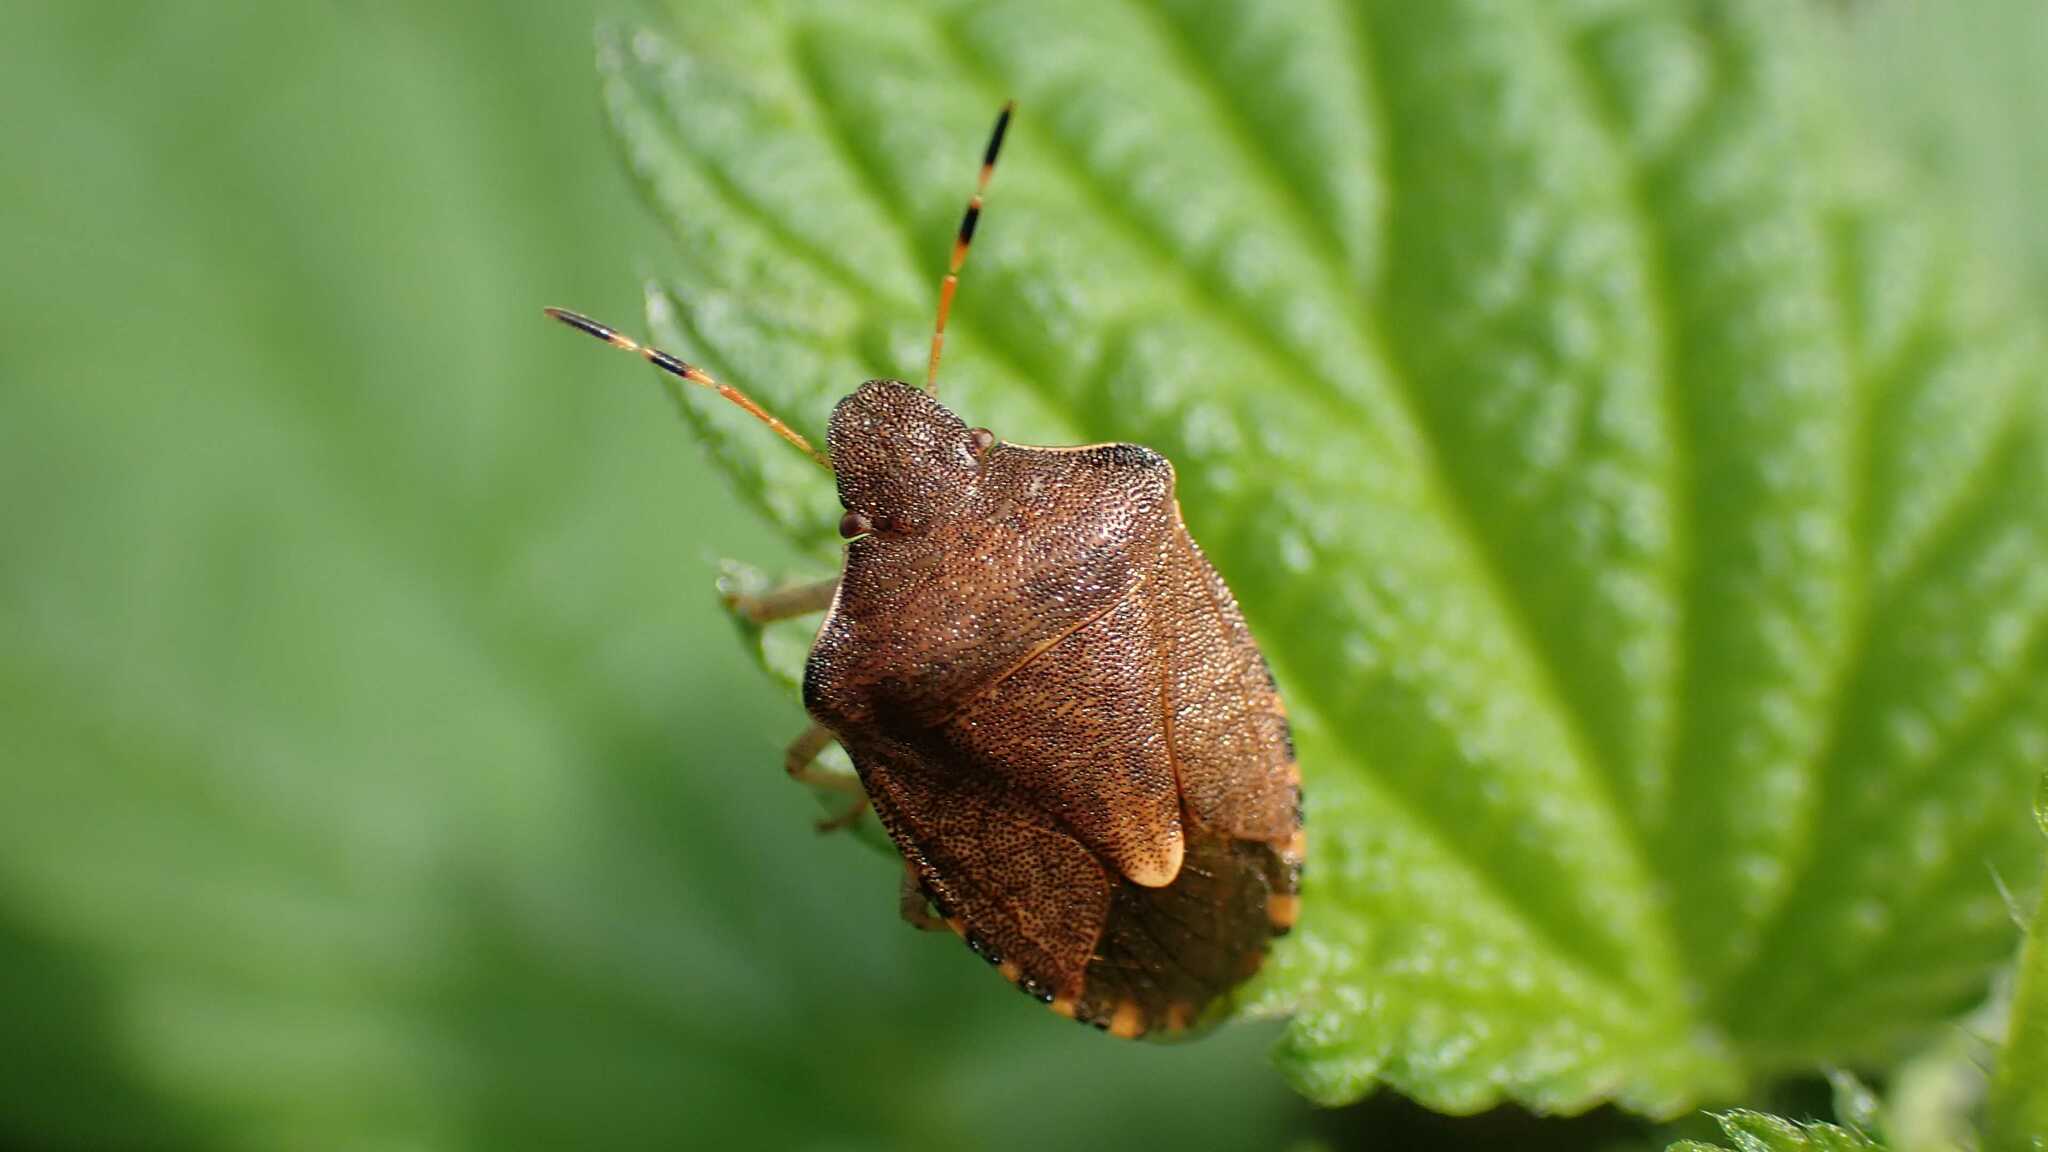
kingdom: Animalia
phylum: Arthropoda
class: Insecta
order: Hemiptera
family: Pentatomidae
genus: Holcostethus
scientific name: Holcostethus strictus
